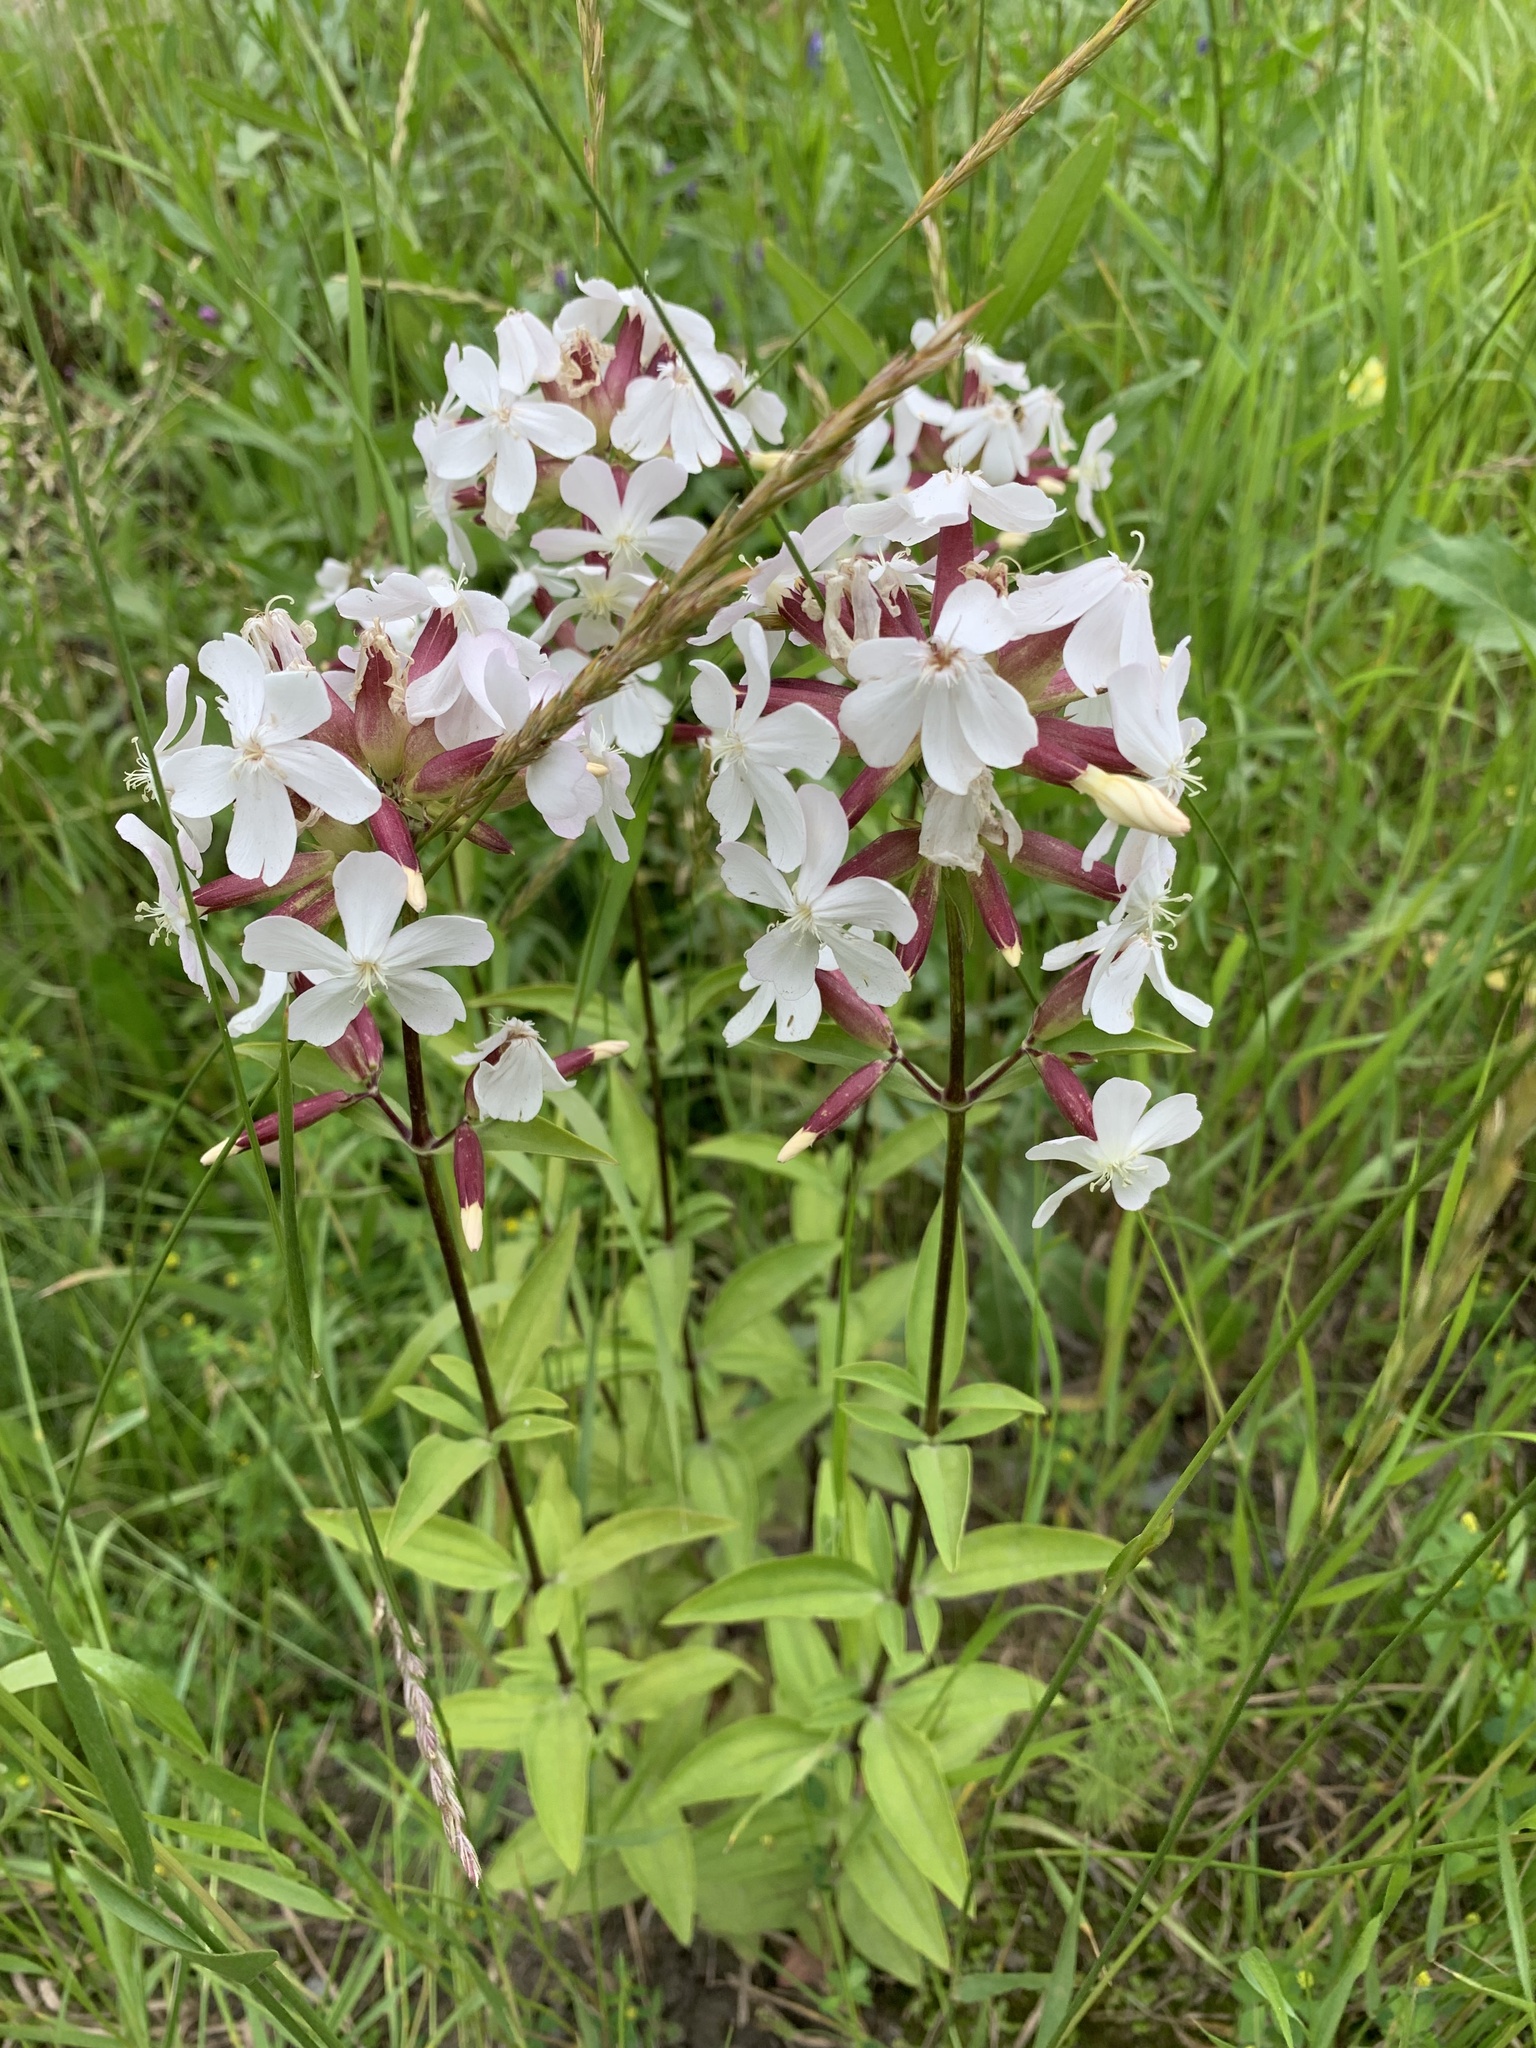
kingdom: Plantae
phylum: Tracheophyta
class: Magnoliopsida
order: Caryophyllales
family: Caryophyllaceae
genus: Saponaria
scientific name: Saponaria officinalis
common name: Soapwort
